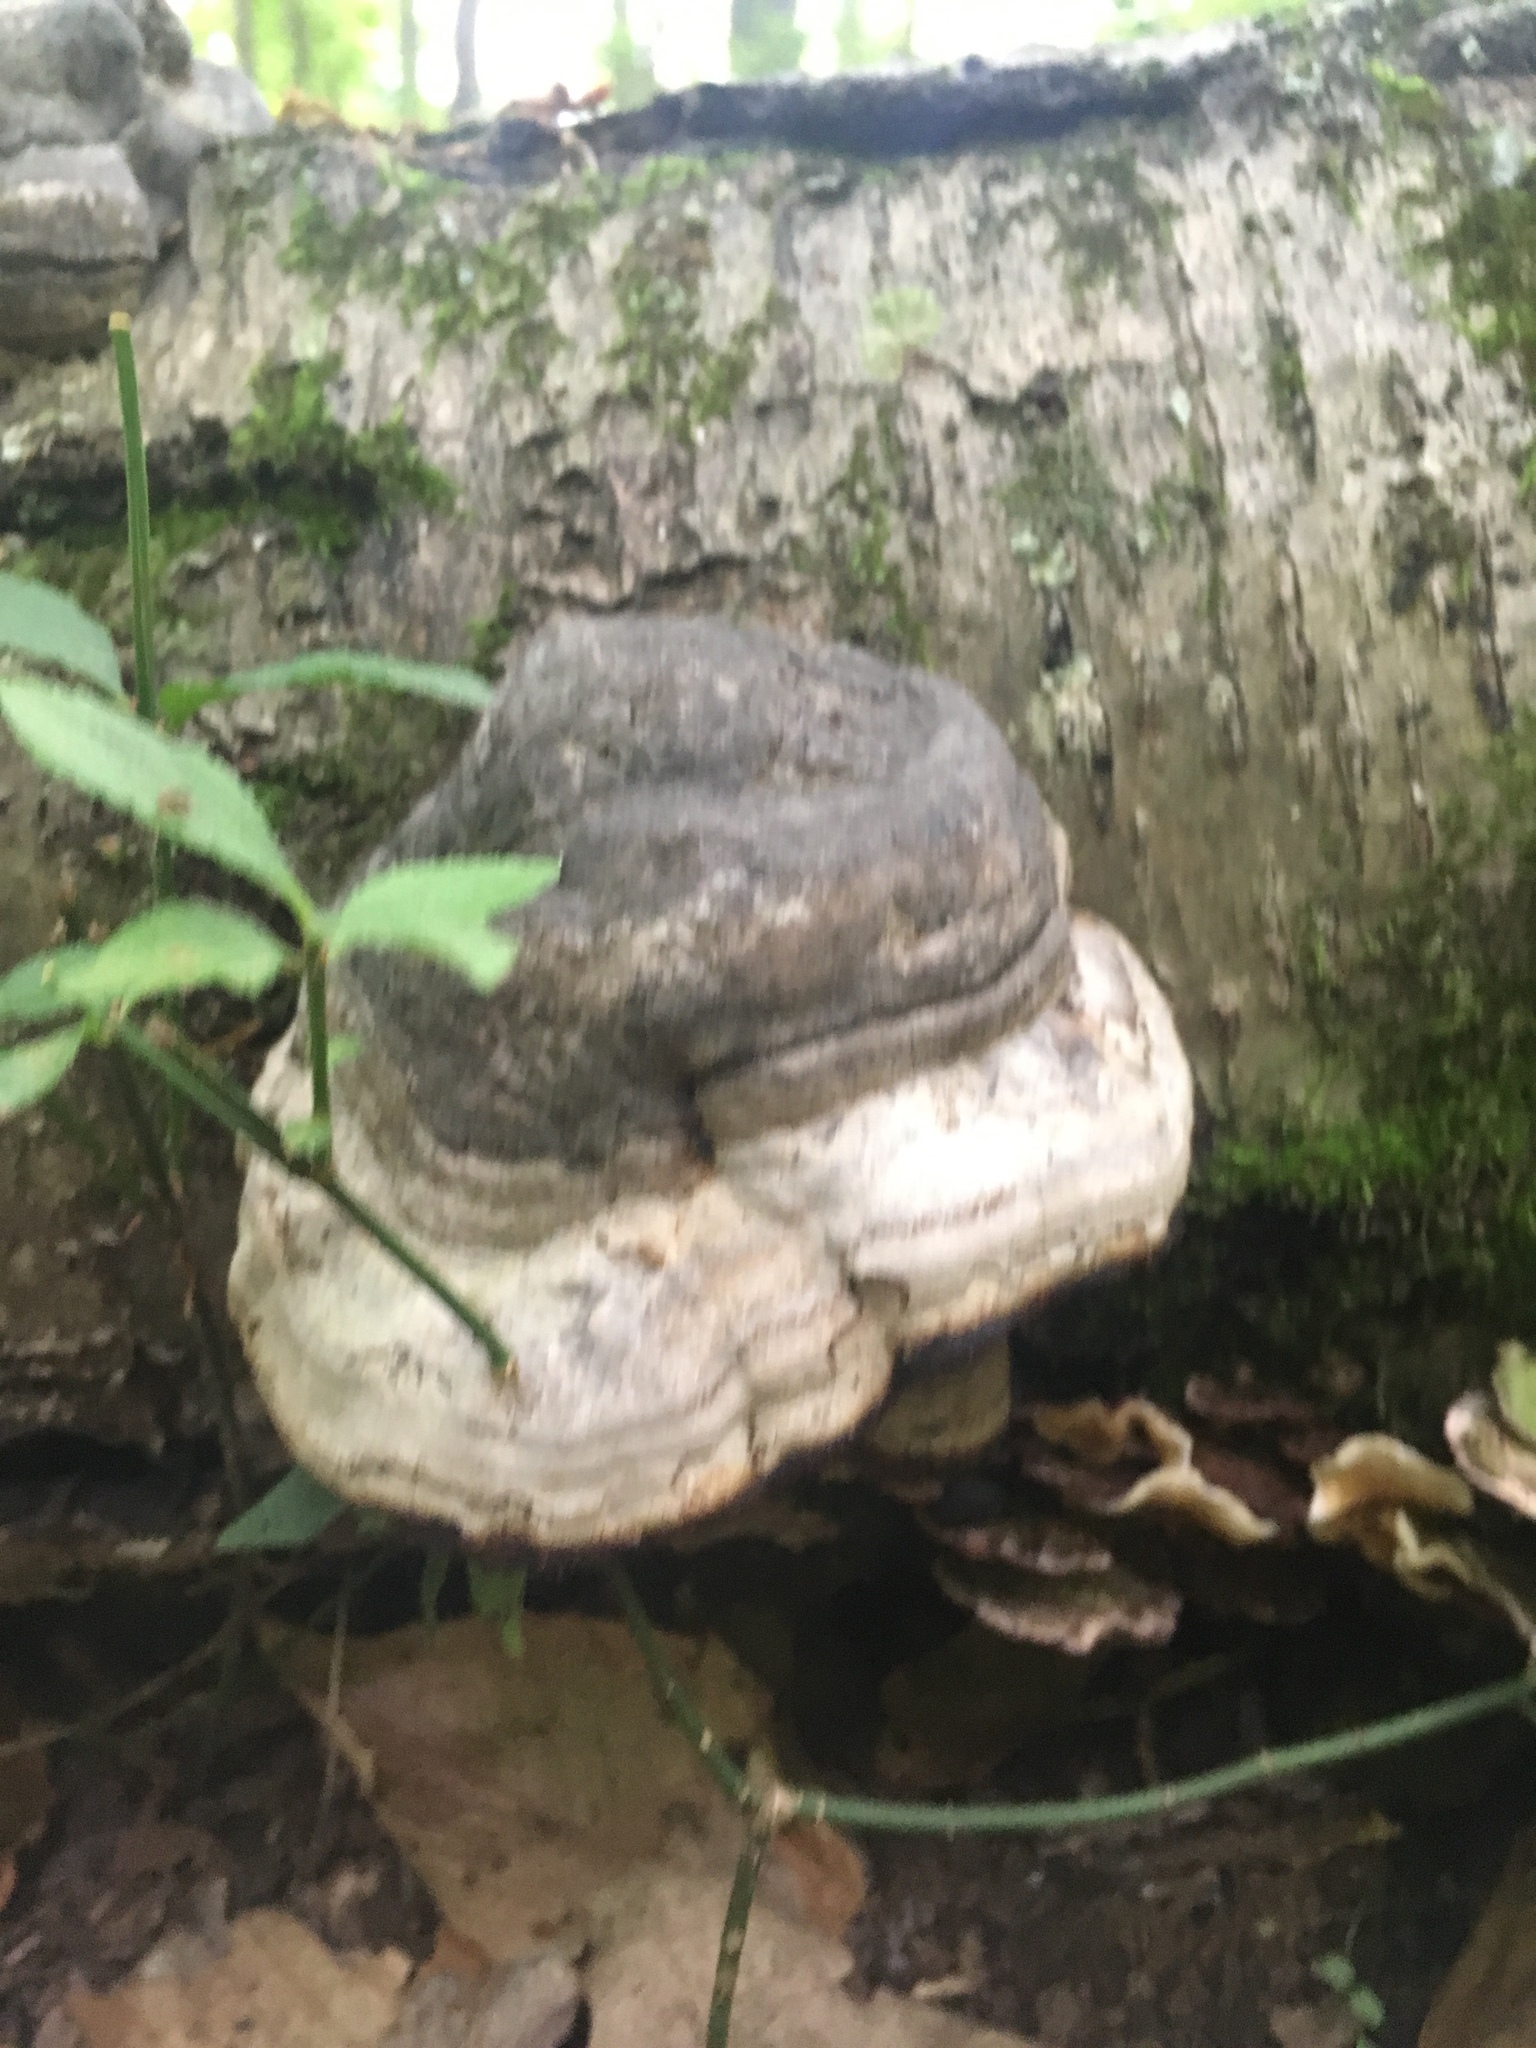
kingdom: Fungi
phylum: Basidiomycota
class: Agaricomycetes
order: Polyporales
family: Polyporaceae
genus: Fomes
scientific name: Fomes fomentarius
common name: Hoof fungus
